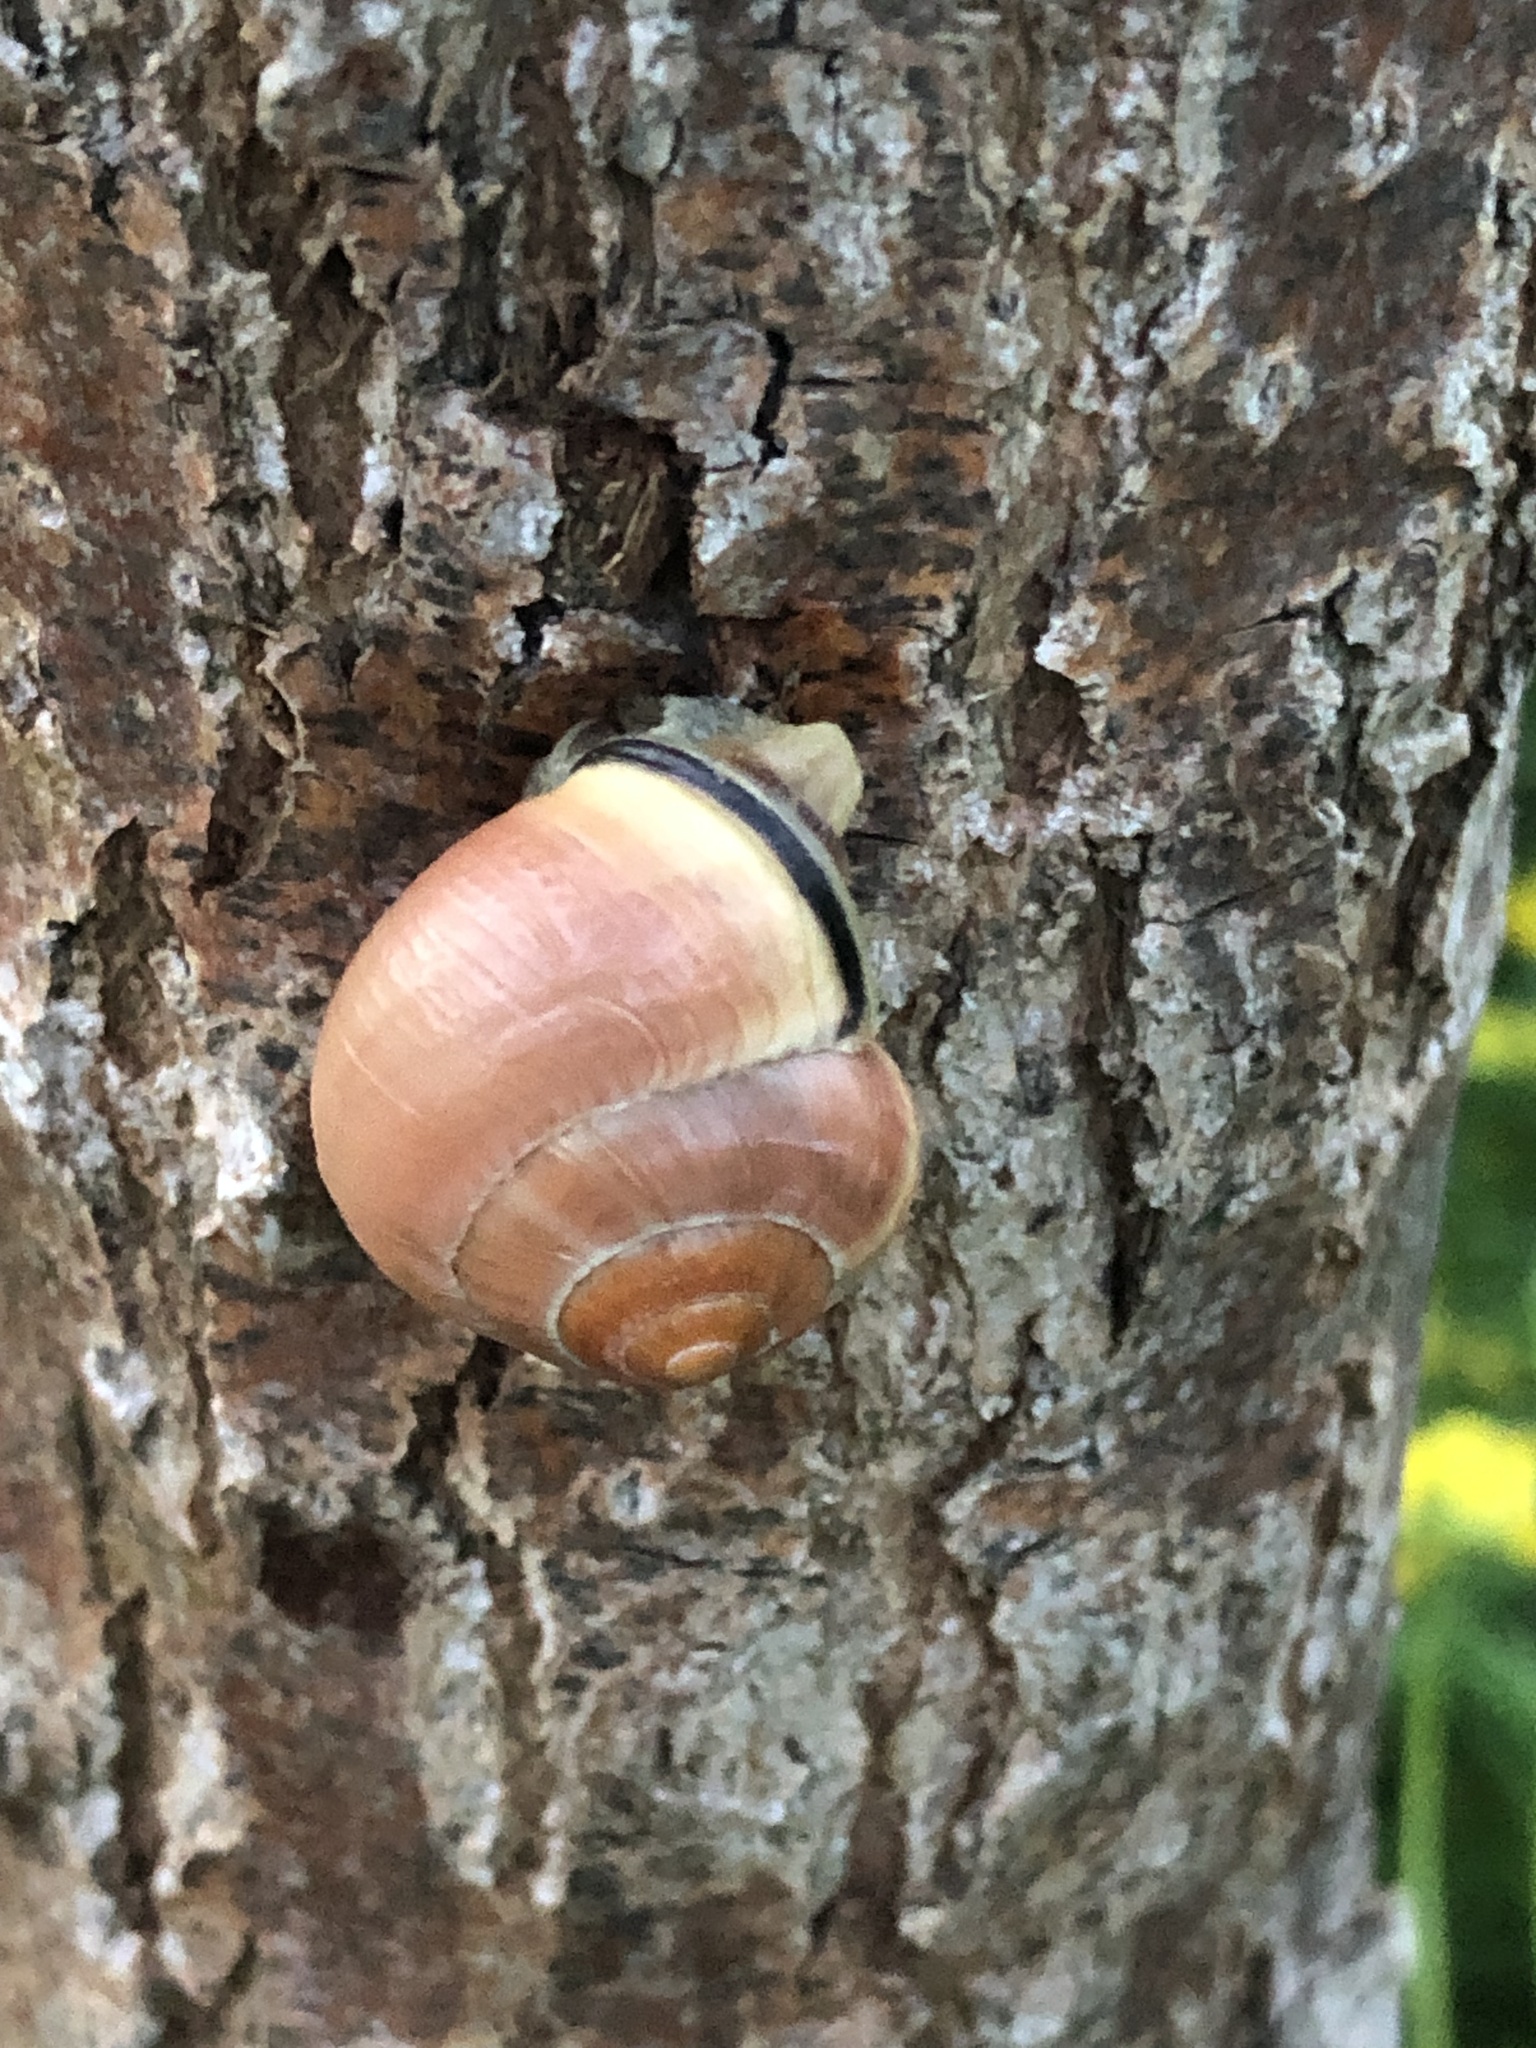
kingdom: Animalia
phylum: Mollusca
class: Gastropoda
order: Stylommatophora
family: Helicidae
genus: Cepaea
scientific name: Cepaea nemoralis
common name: Grovesnail
